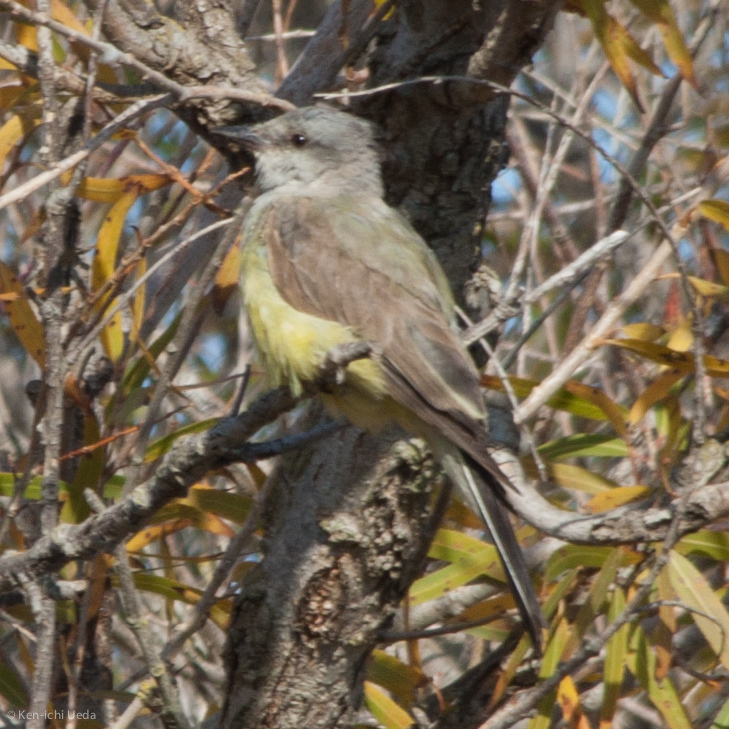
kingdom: Animalia
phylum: Chordata
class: Aves
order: Passeriformes
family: Tyrannidae
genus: Tyrannus
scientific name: Tyrannus verticalis
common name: Western kingbird
